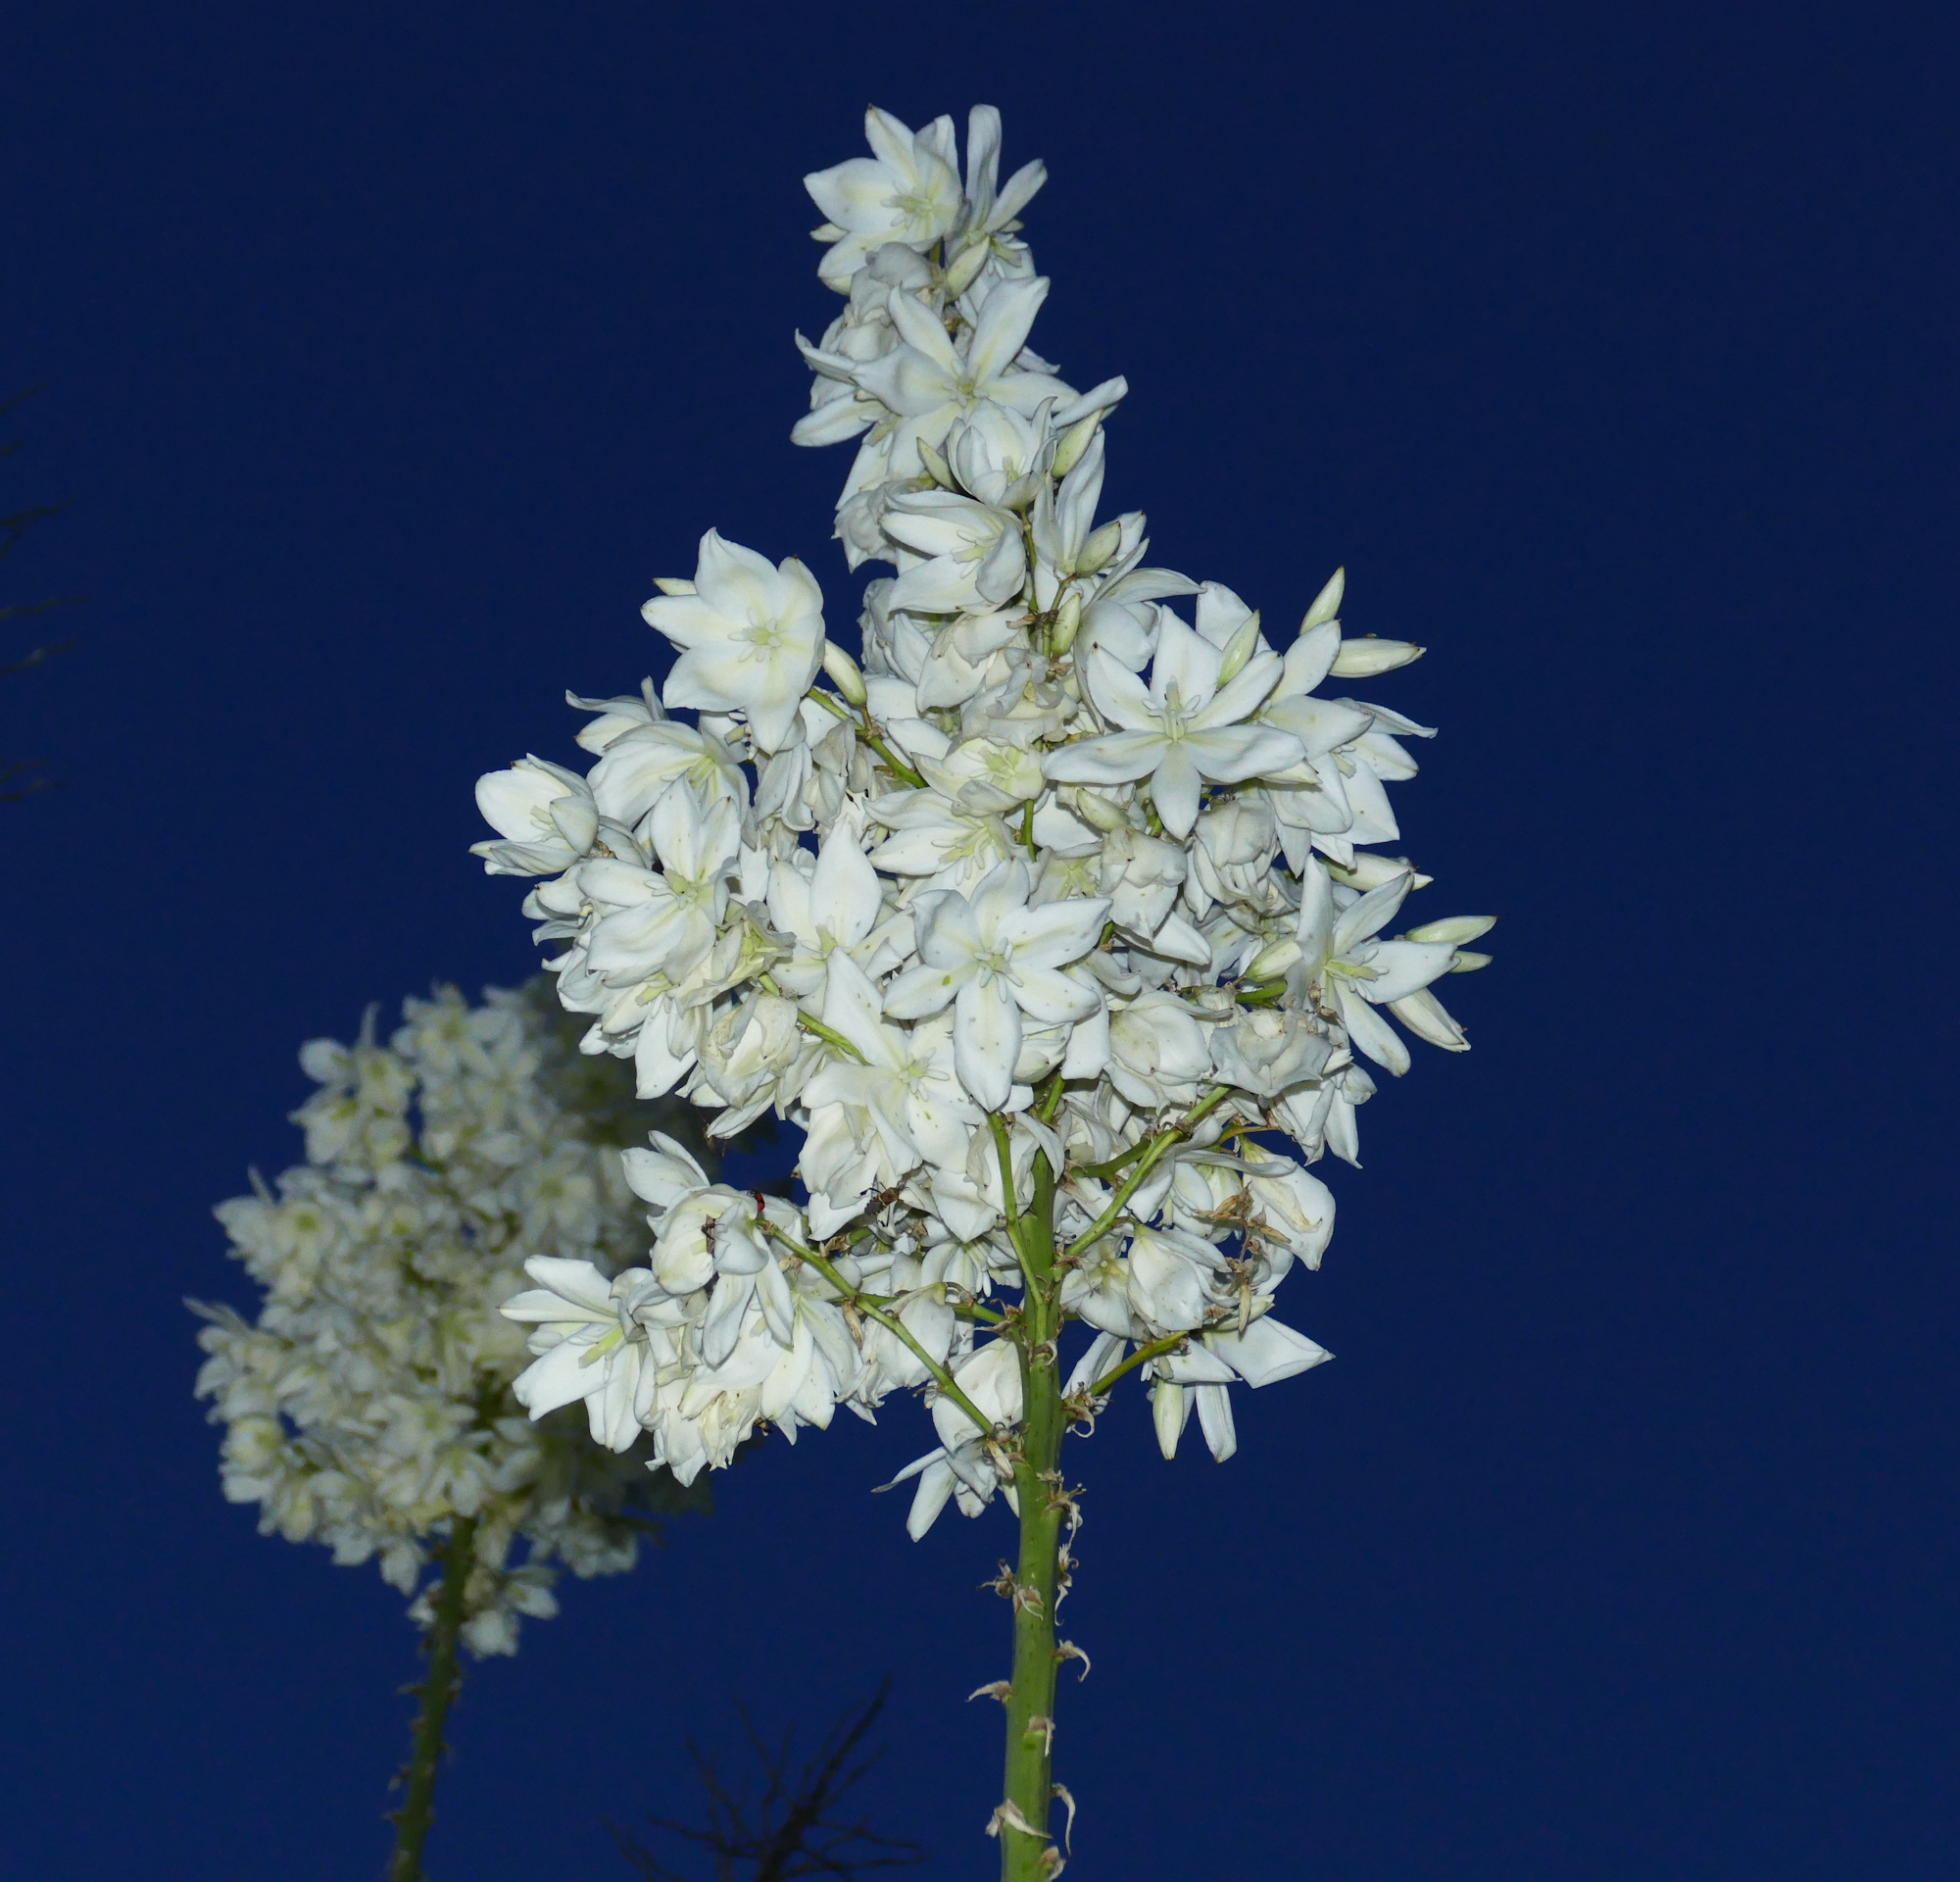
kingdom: Plantae
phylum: Tracheophyta
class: Liliopsida
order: Asparagales
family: Asparagaceae
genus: Yucca
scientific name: Yucca elata
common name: Palmella
